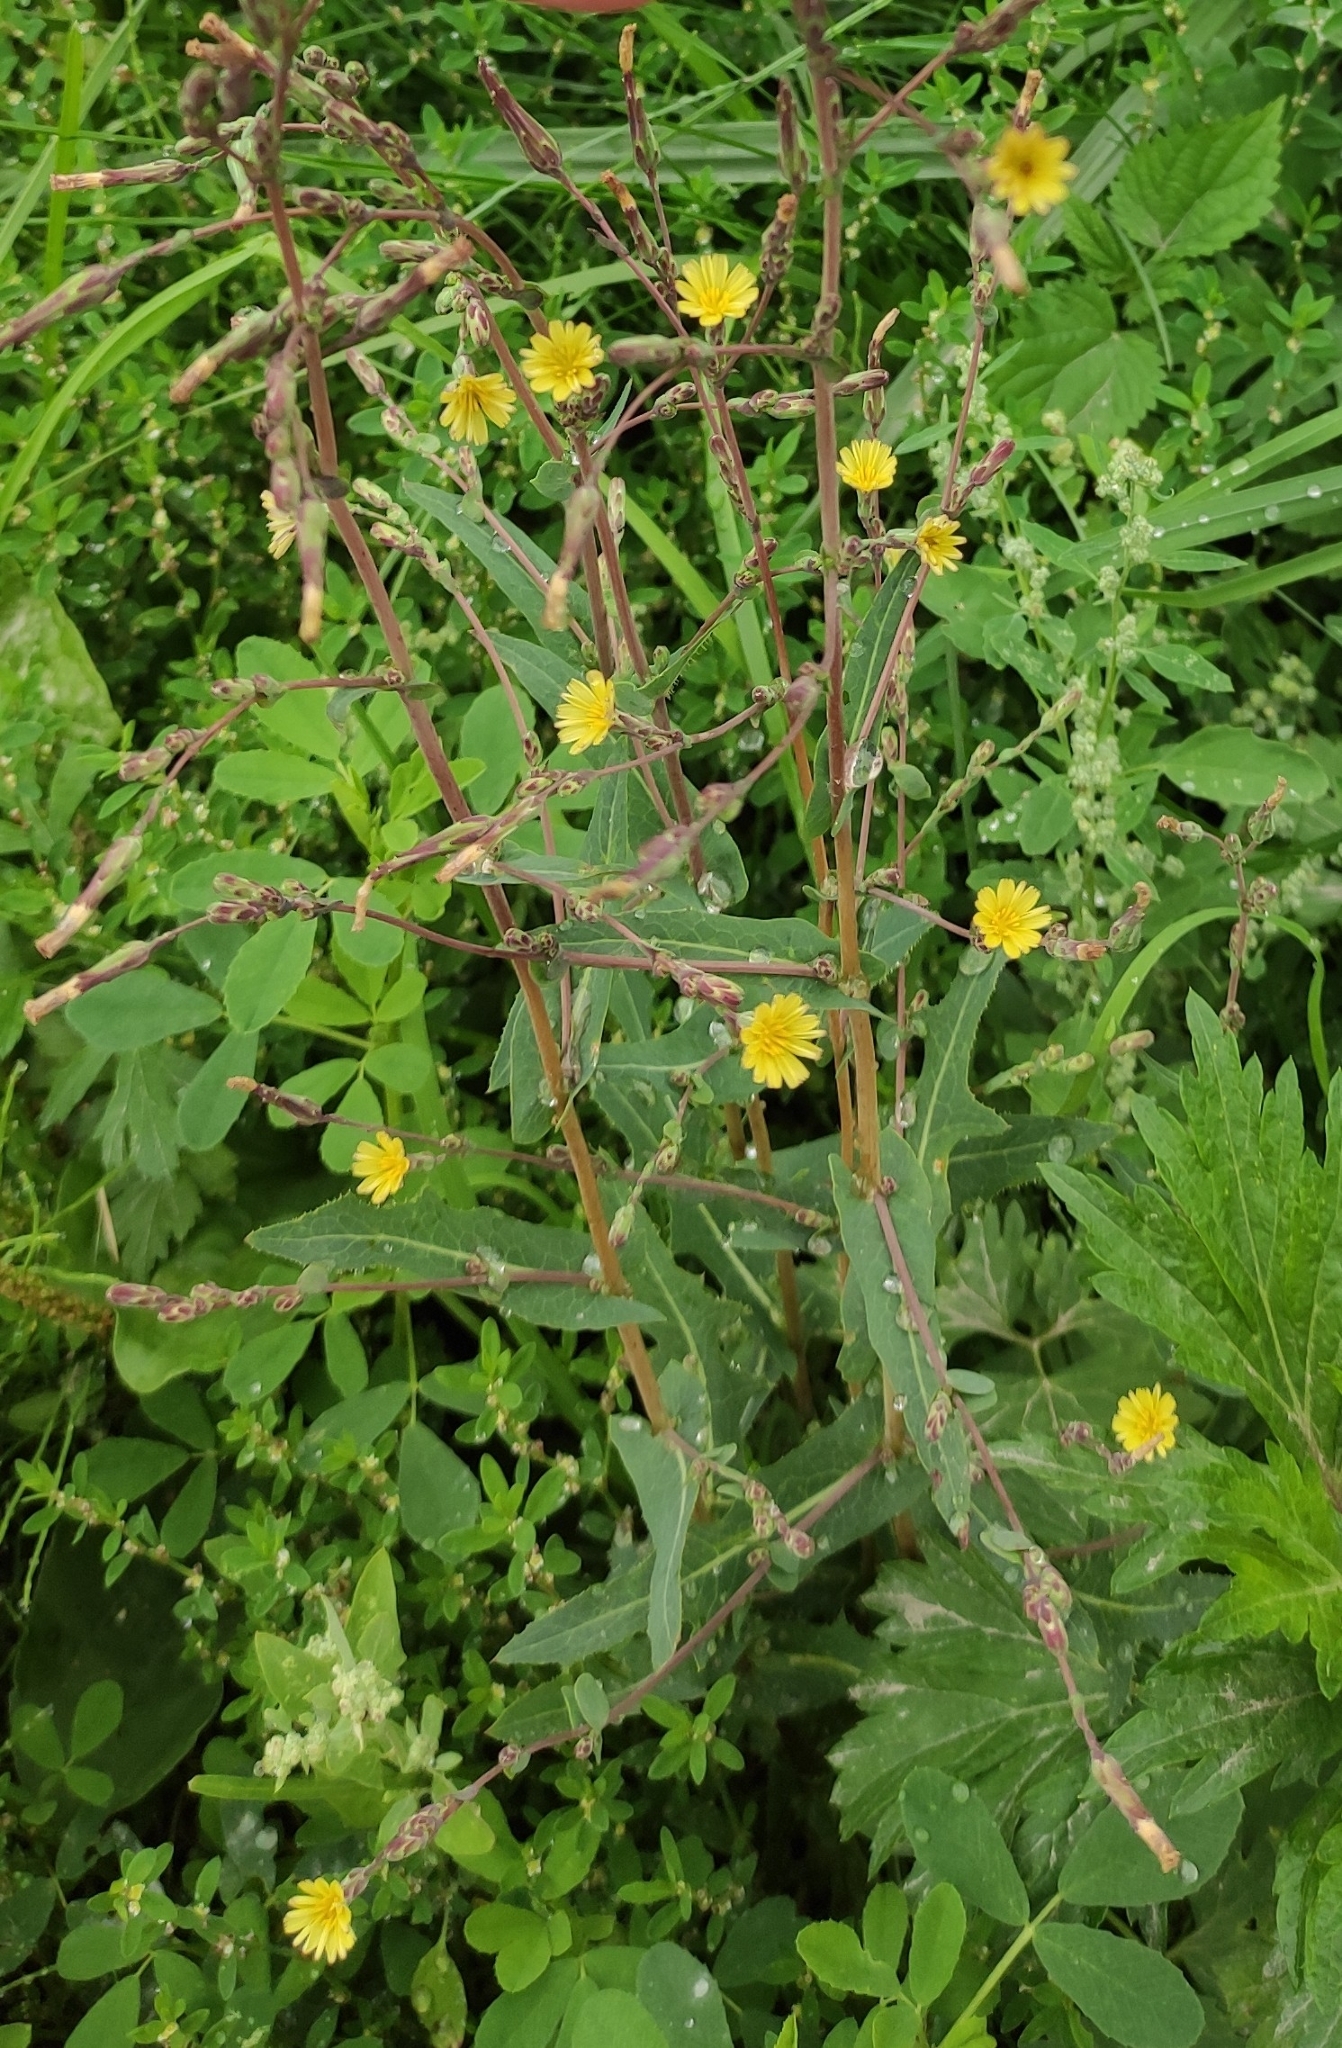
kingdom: Plantae
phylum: Tracheophyta
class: Magnoliopsida
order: Asterales
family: Asteraceae
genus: Lactuca
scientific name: Lactuca serriola
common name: Prickly lettuce
